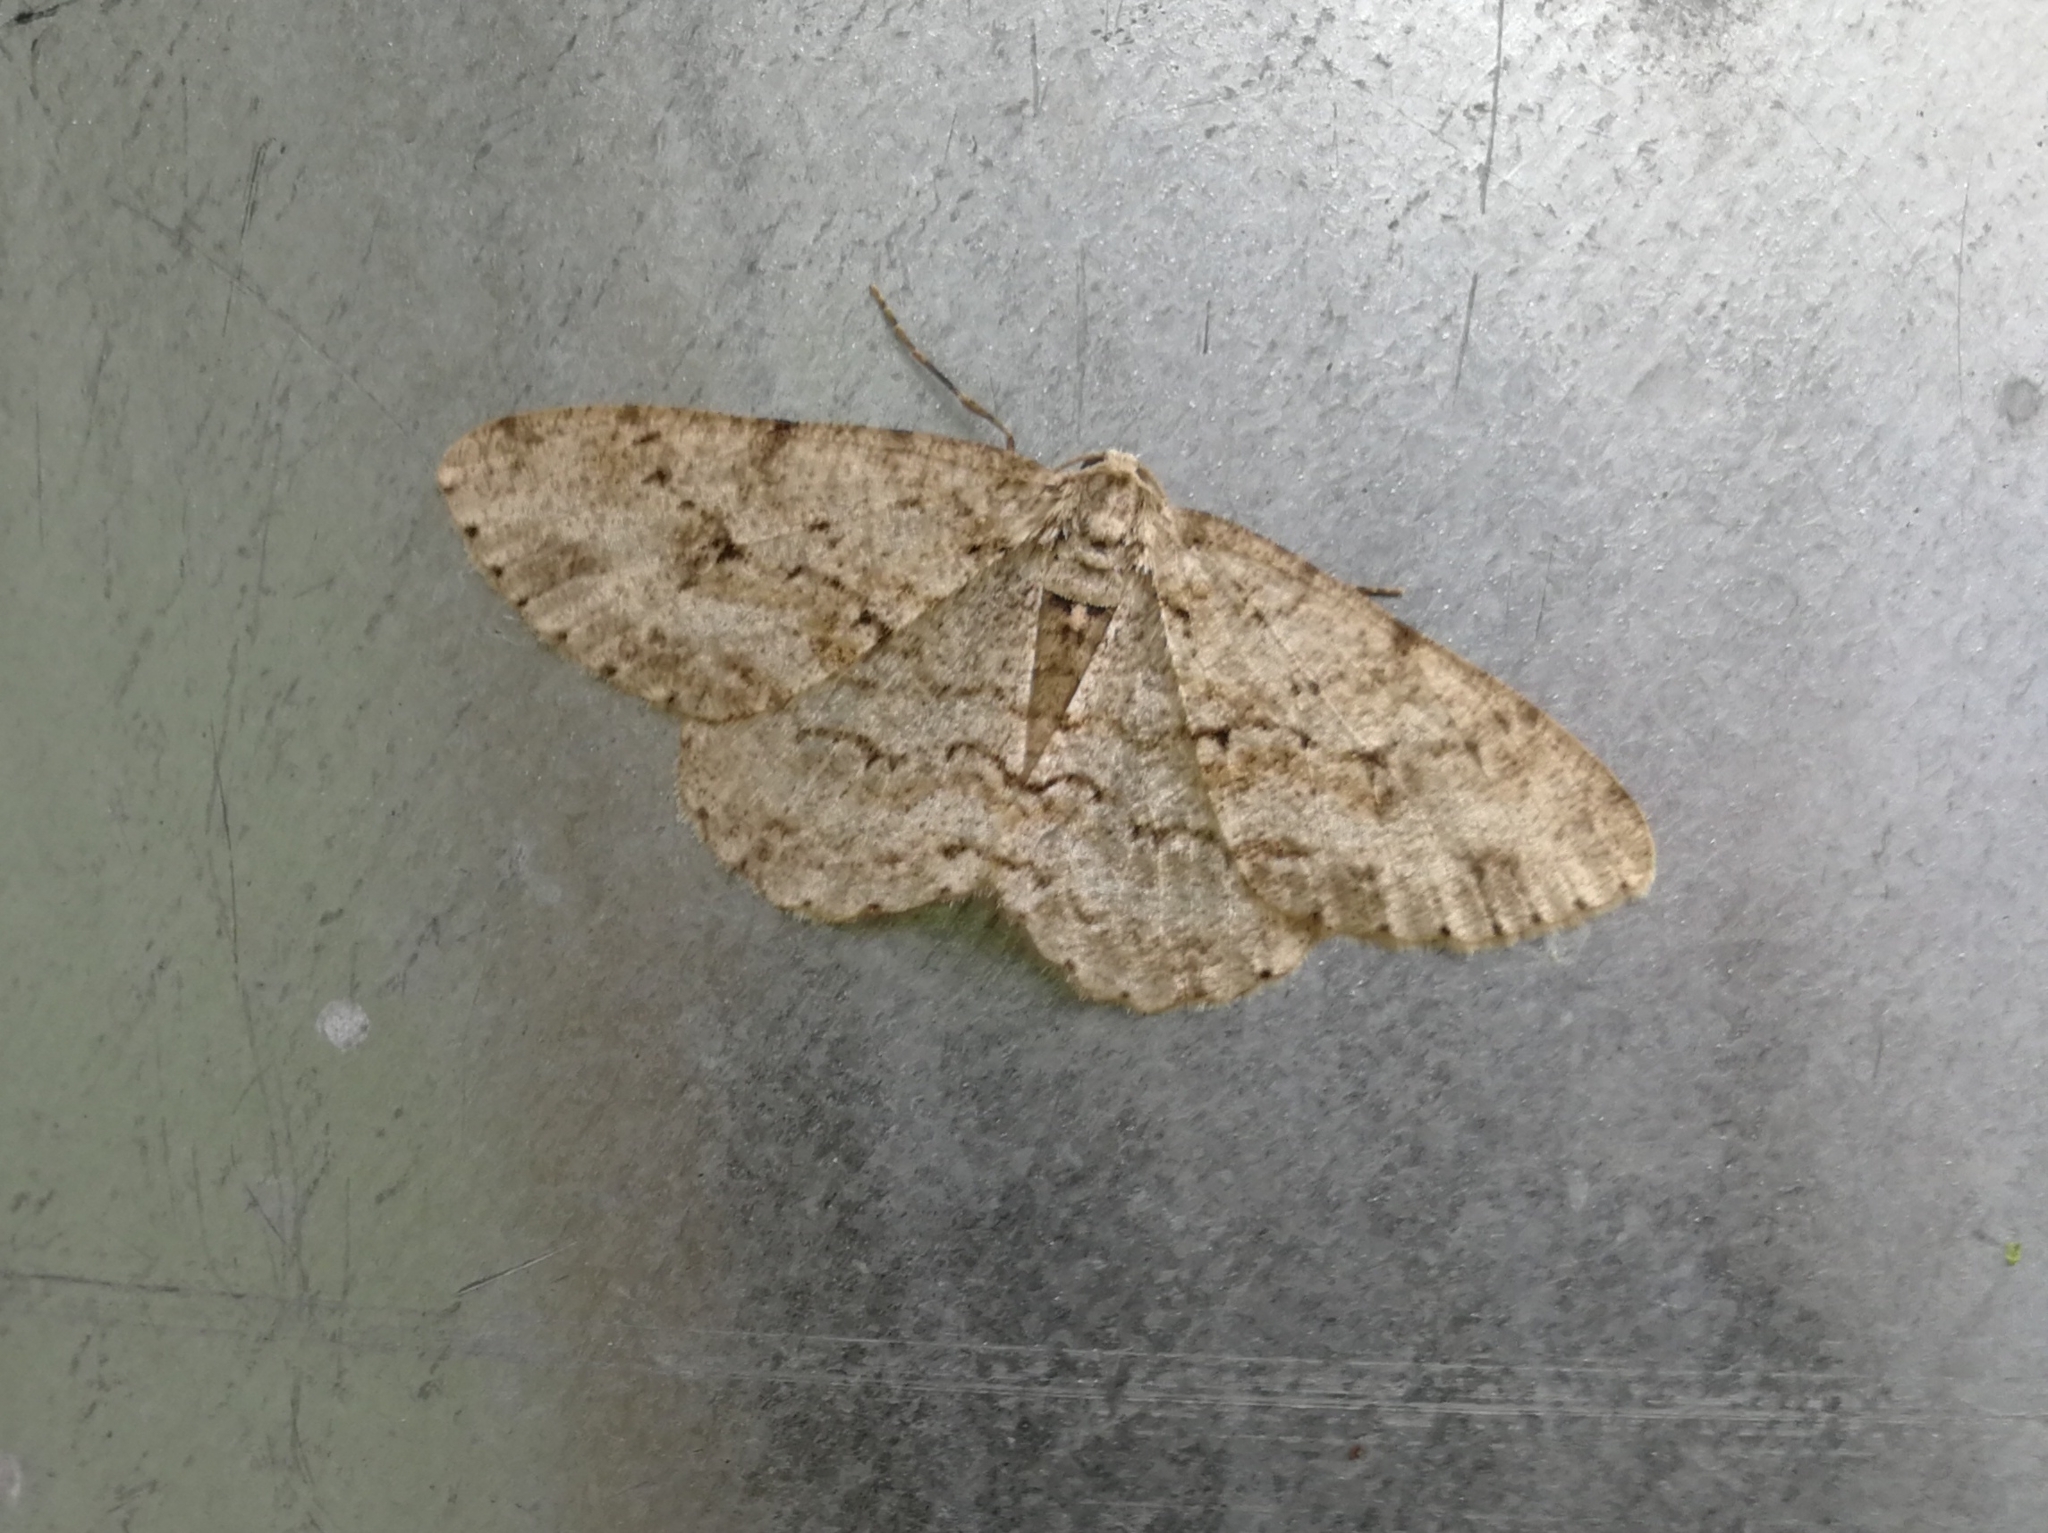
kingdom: Animalia
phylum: Arthropoda
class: Insecta
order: Lepidoptera
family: Geometridae
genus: Ectropis
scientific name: Ectropis crepuscularia
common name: Engrailed
